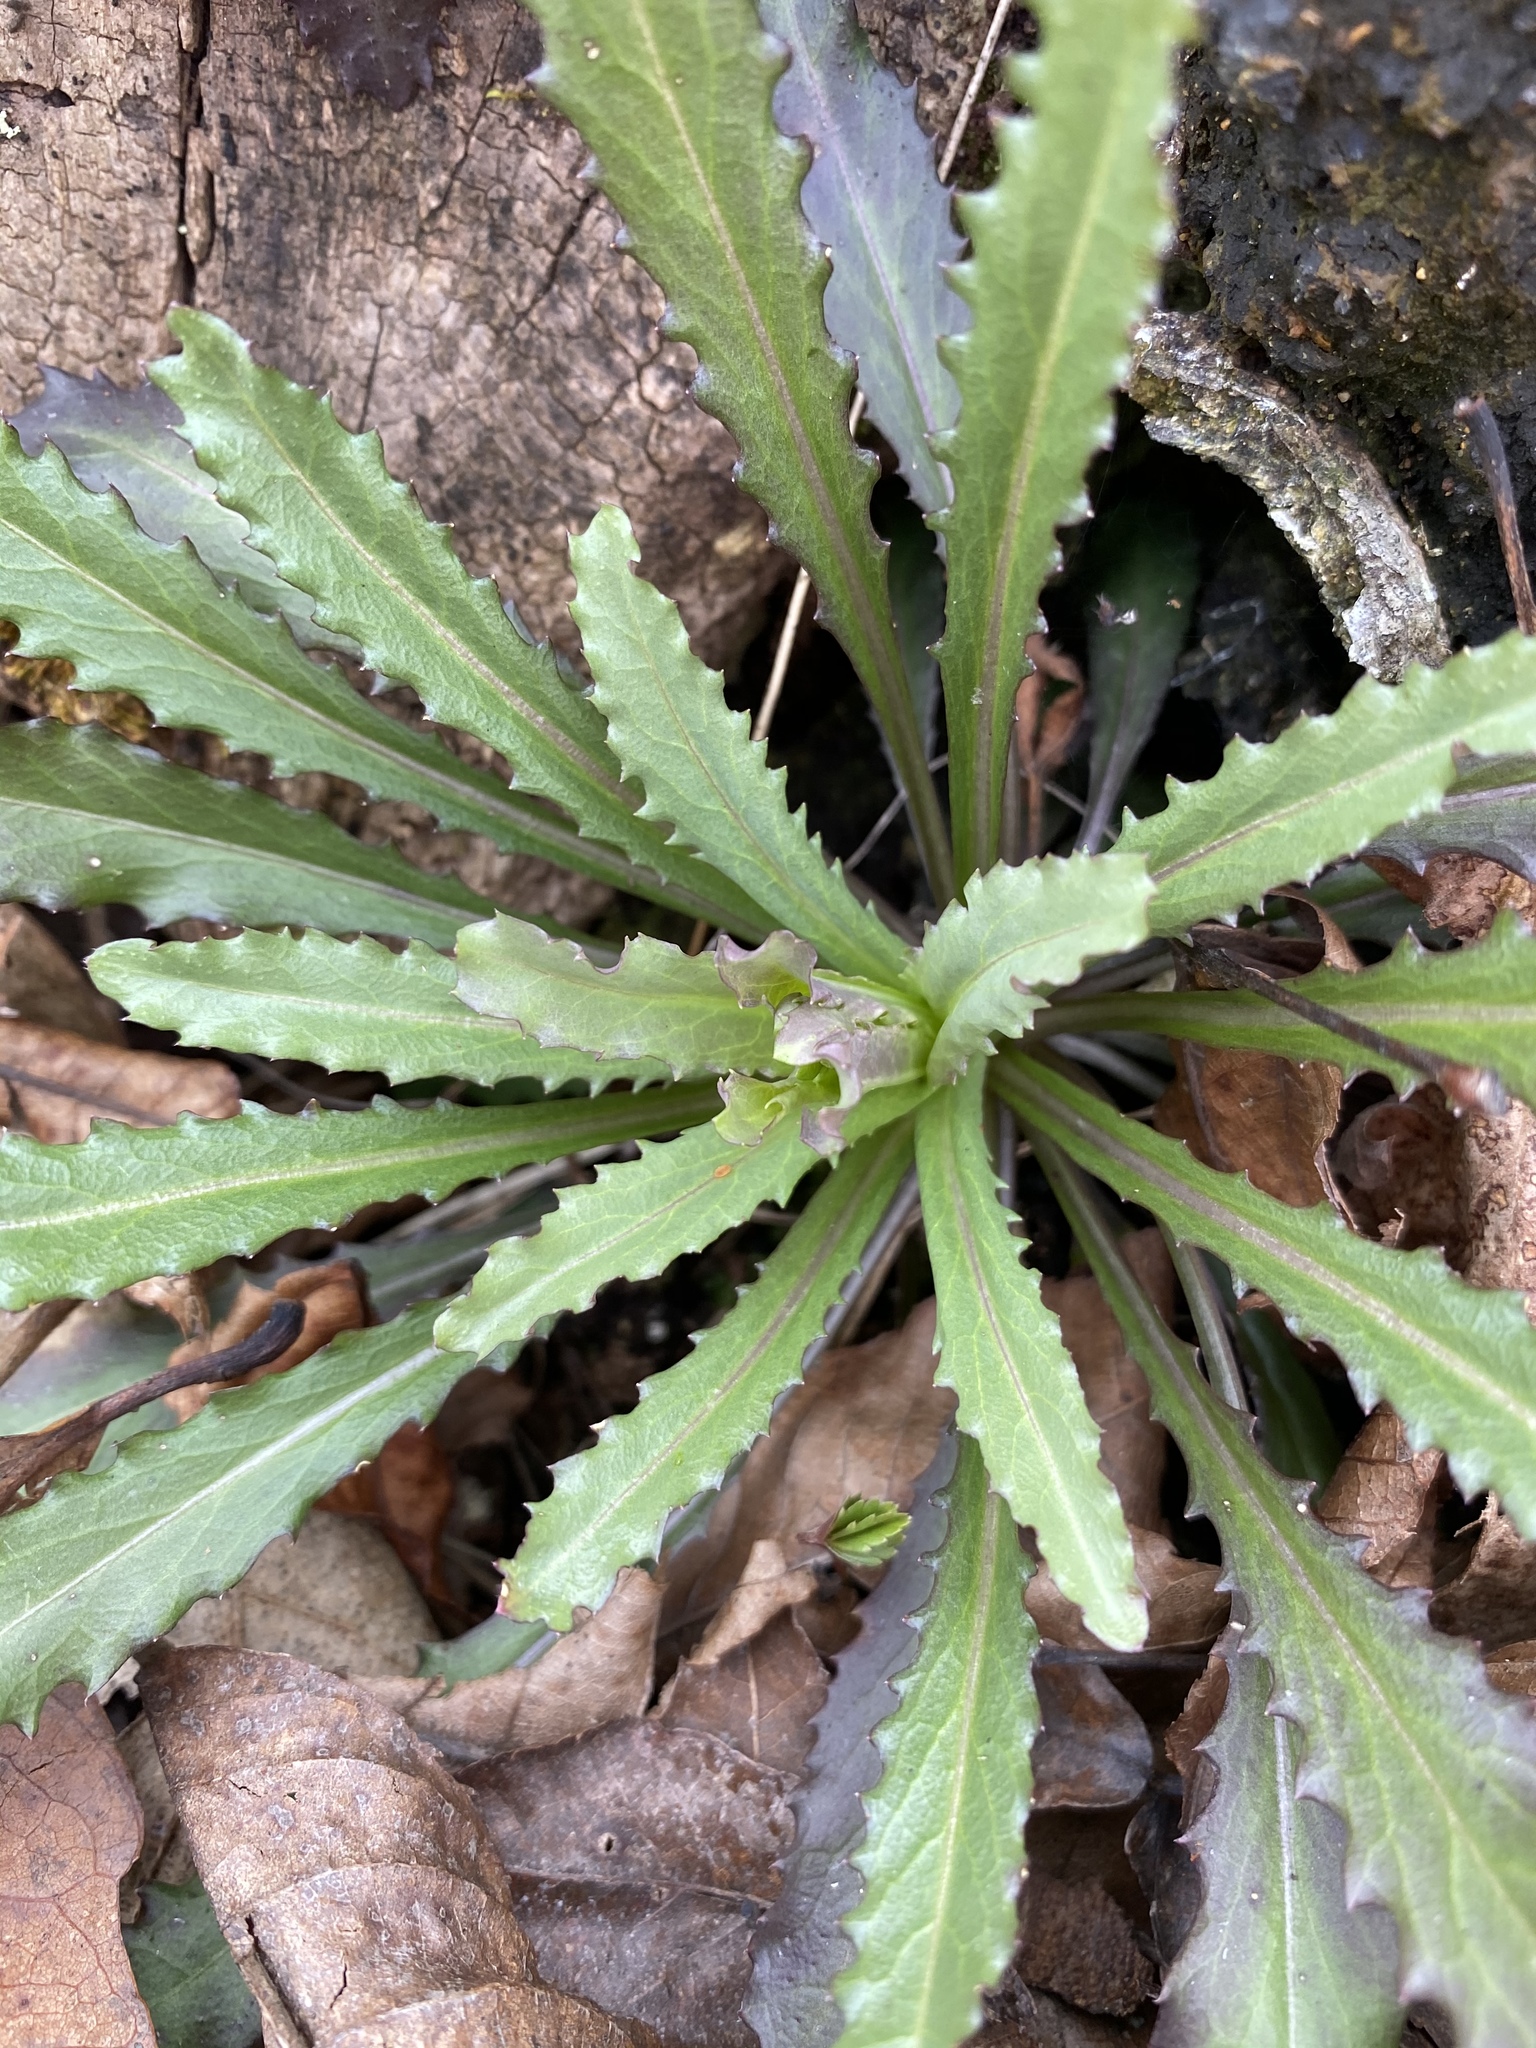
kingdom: Plantae
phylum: Tracheophyta
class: Magnoliopsida
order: Brassicales
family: Brassicaceae
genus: Borodinia
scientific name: Borodinia laevigata
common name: Smooth rockcress
